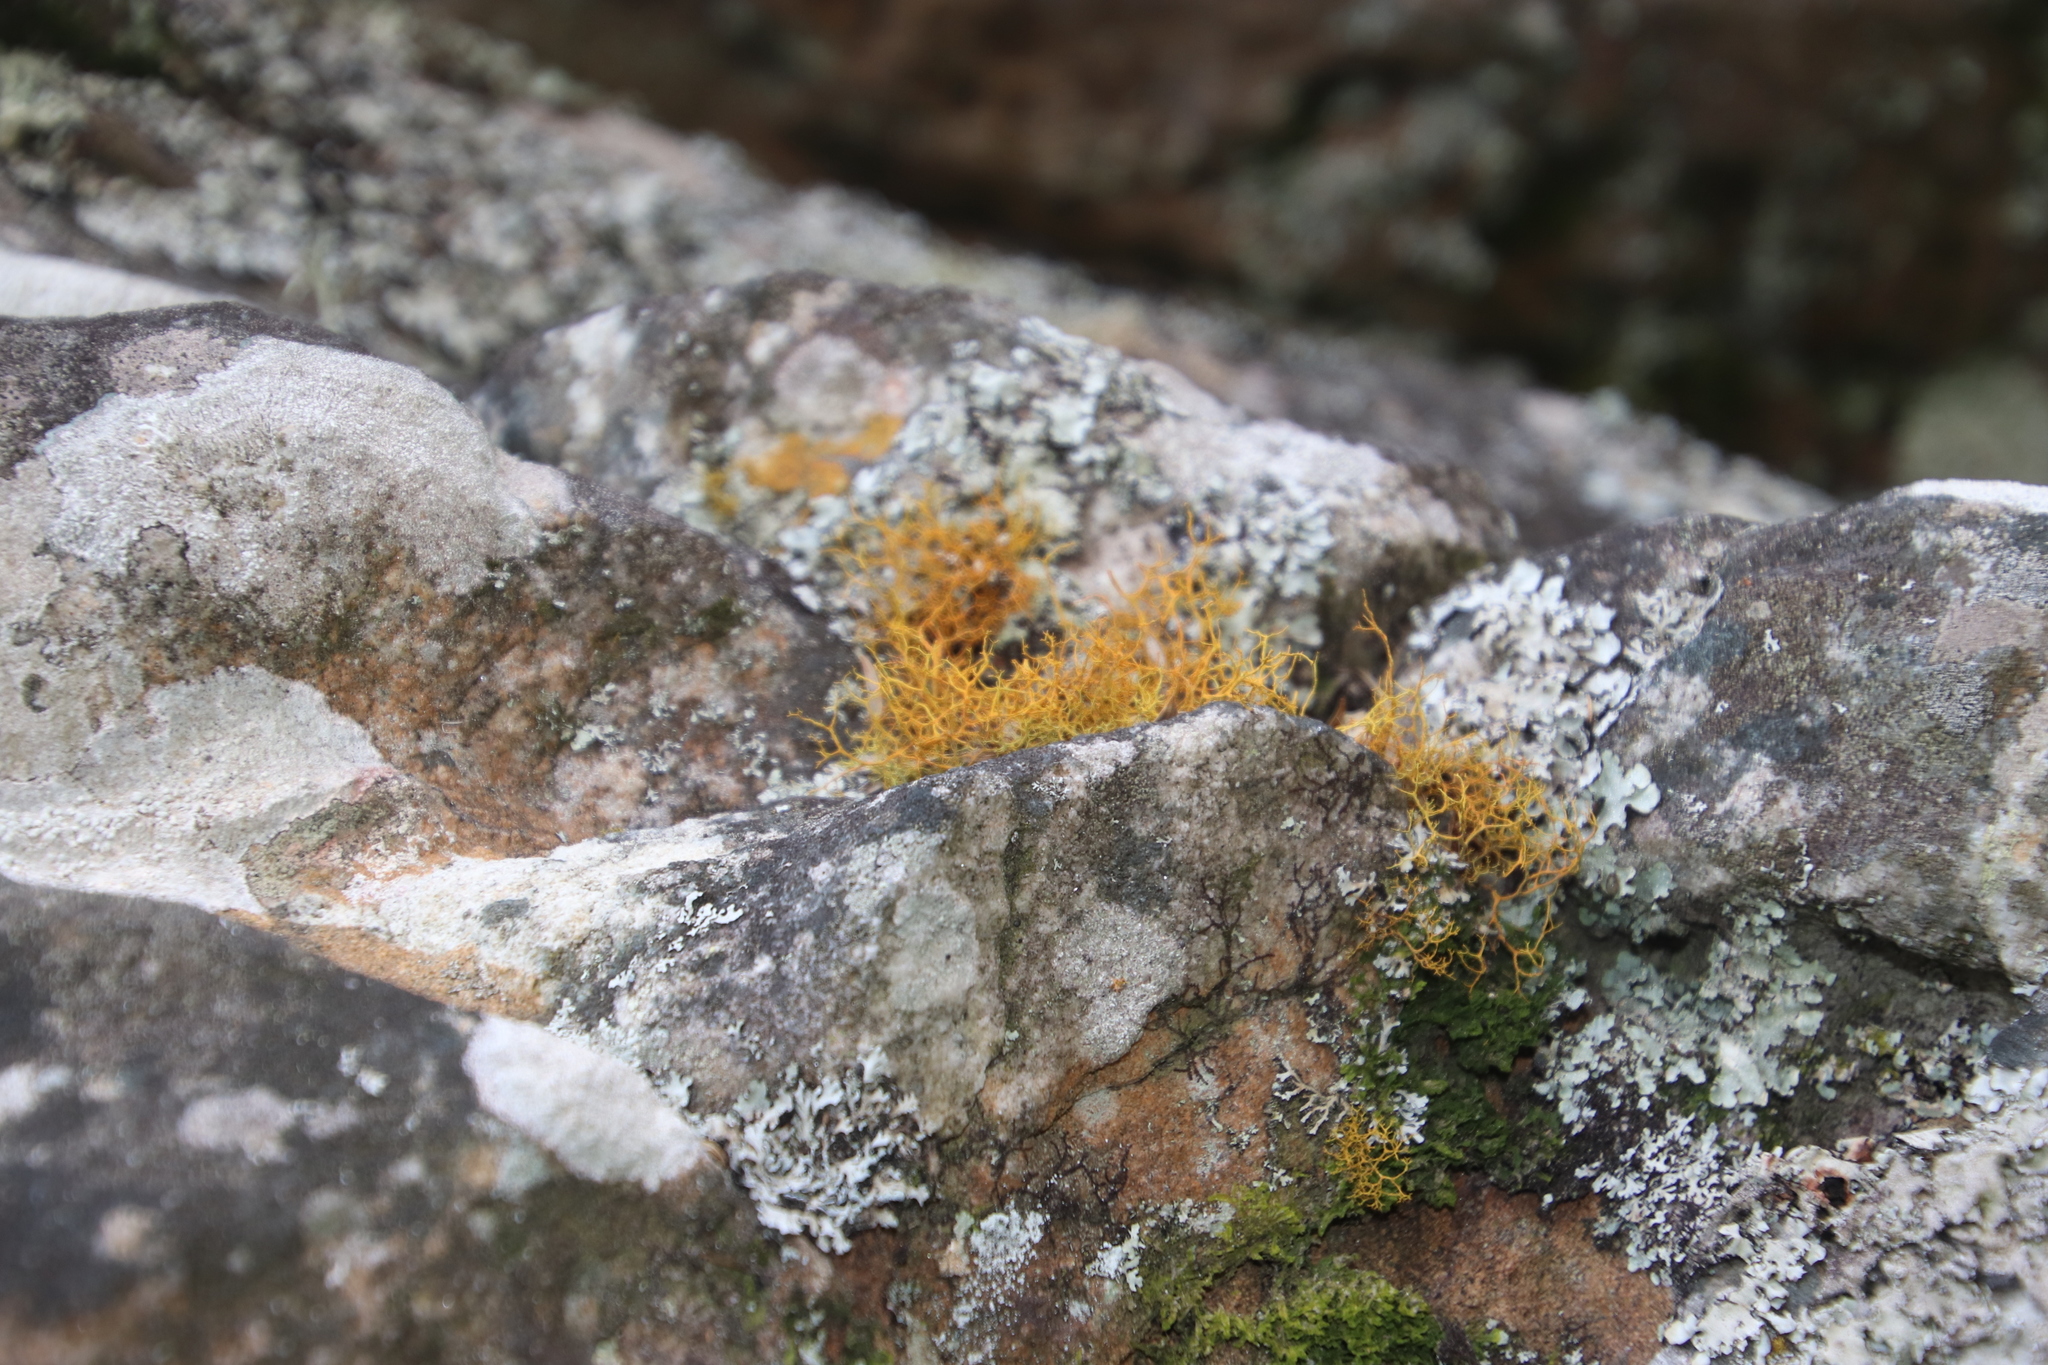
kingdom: Fungi
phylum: Ascomycota
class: Lecanoromycetes
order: Teloschistales
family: Teloschistaceae
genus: Teloschistes
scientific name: Teloschistes flavicans
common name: Golden hair-lichen
